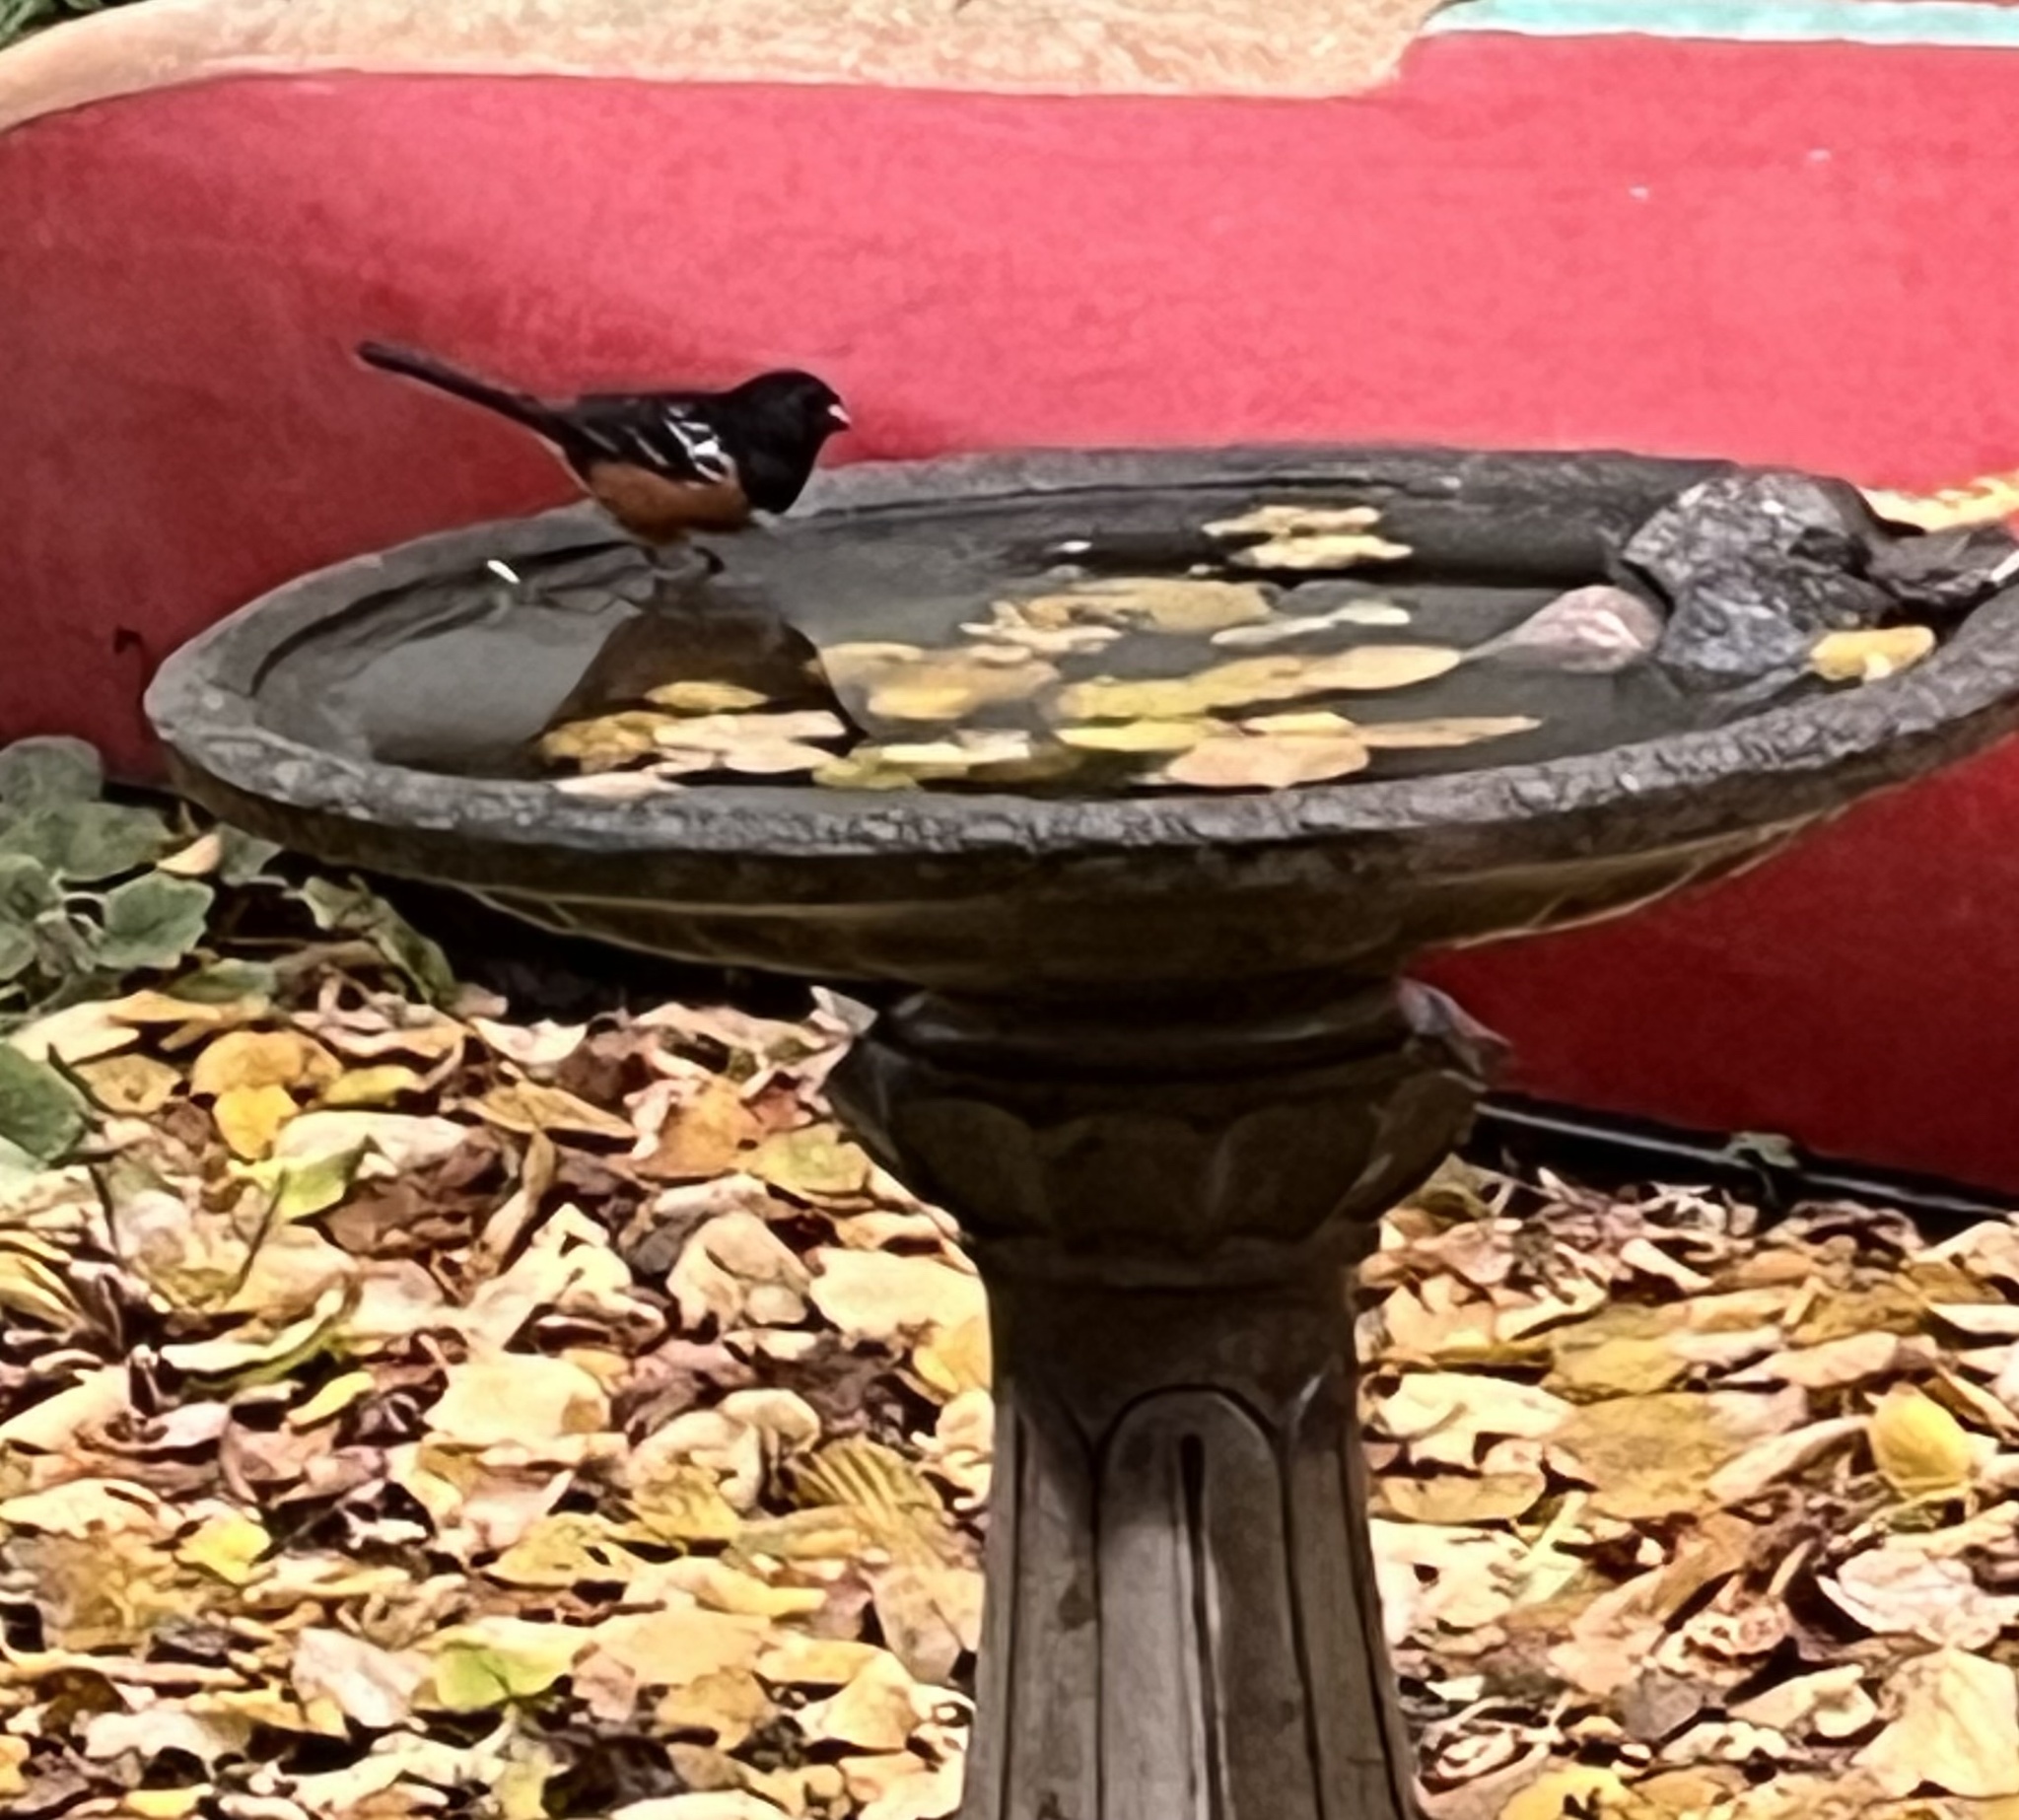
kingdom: Animalia
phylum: Chordata
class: Aves
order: Passeriformes
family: Passerellidae
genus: Pipilo
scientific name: Pipilo maculatus
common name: Spotted towhee
